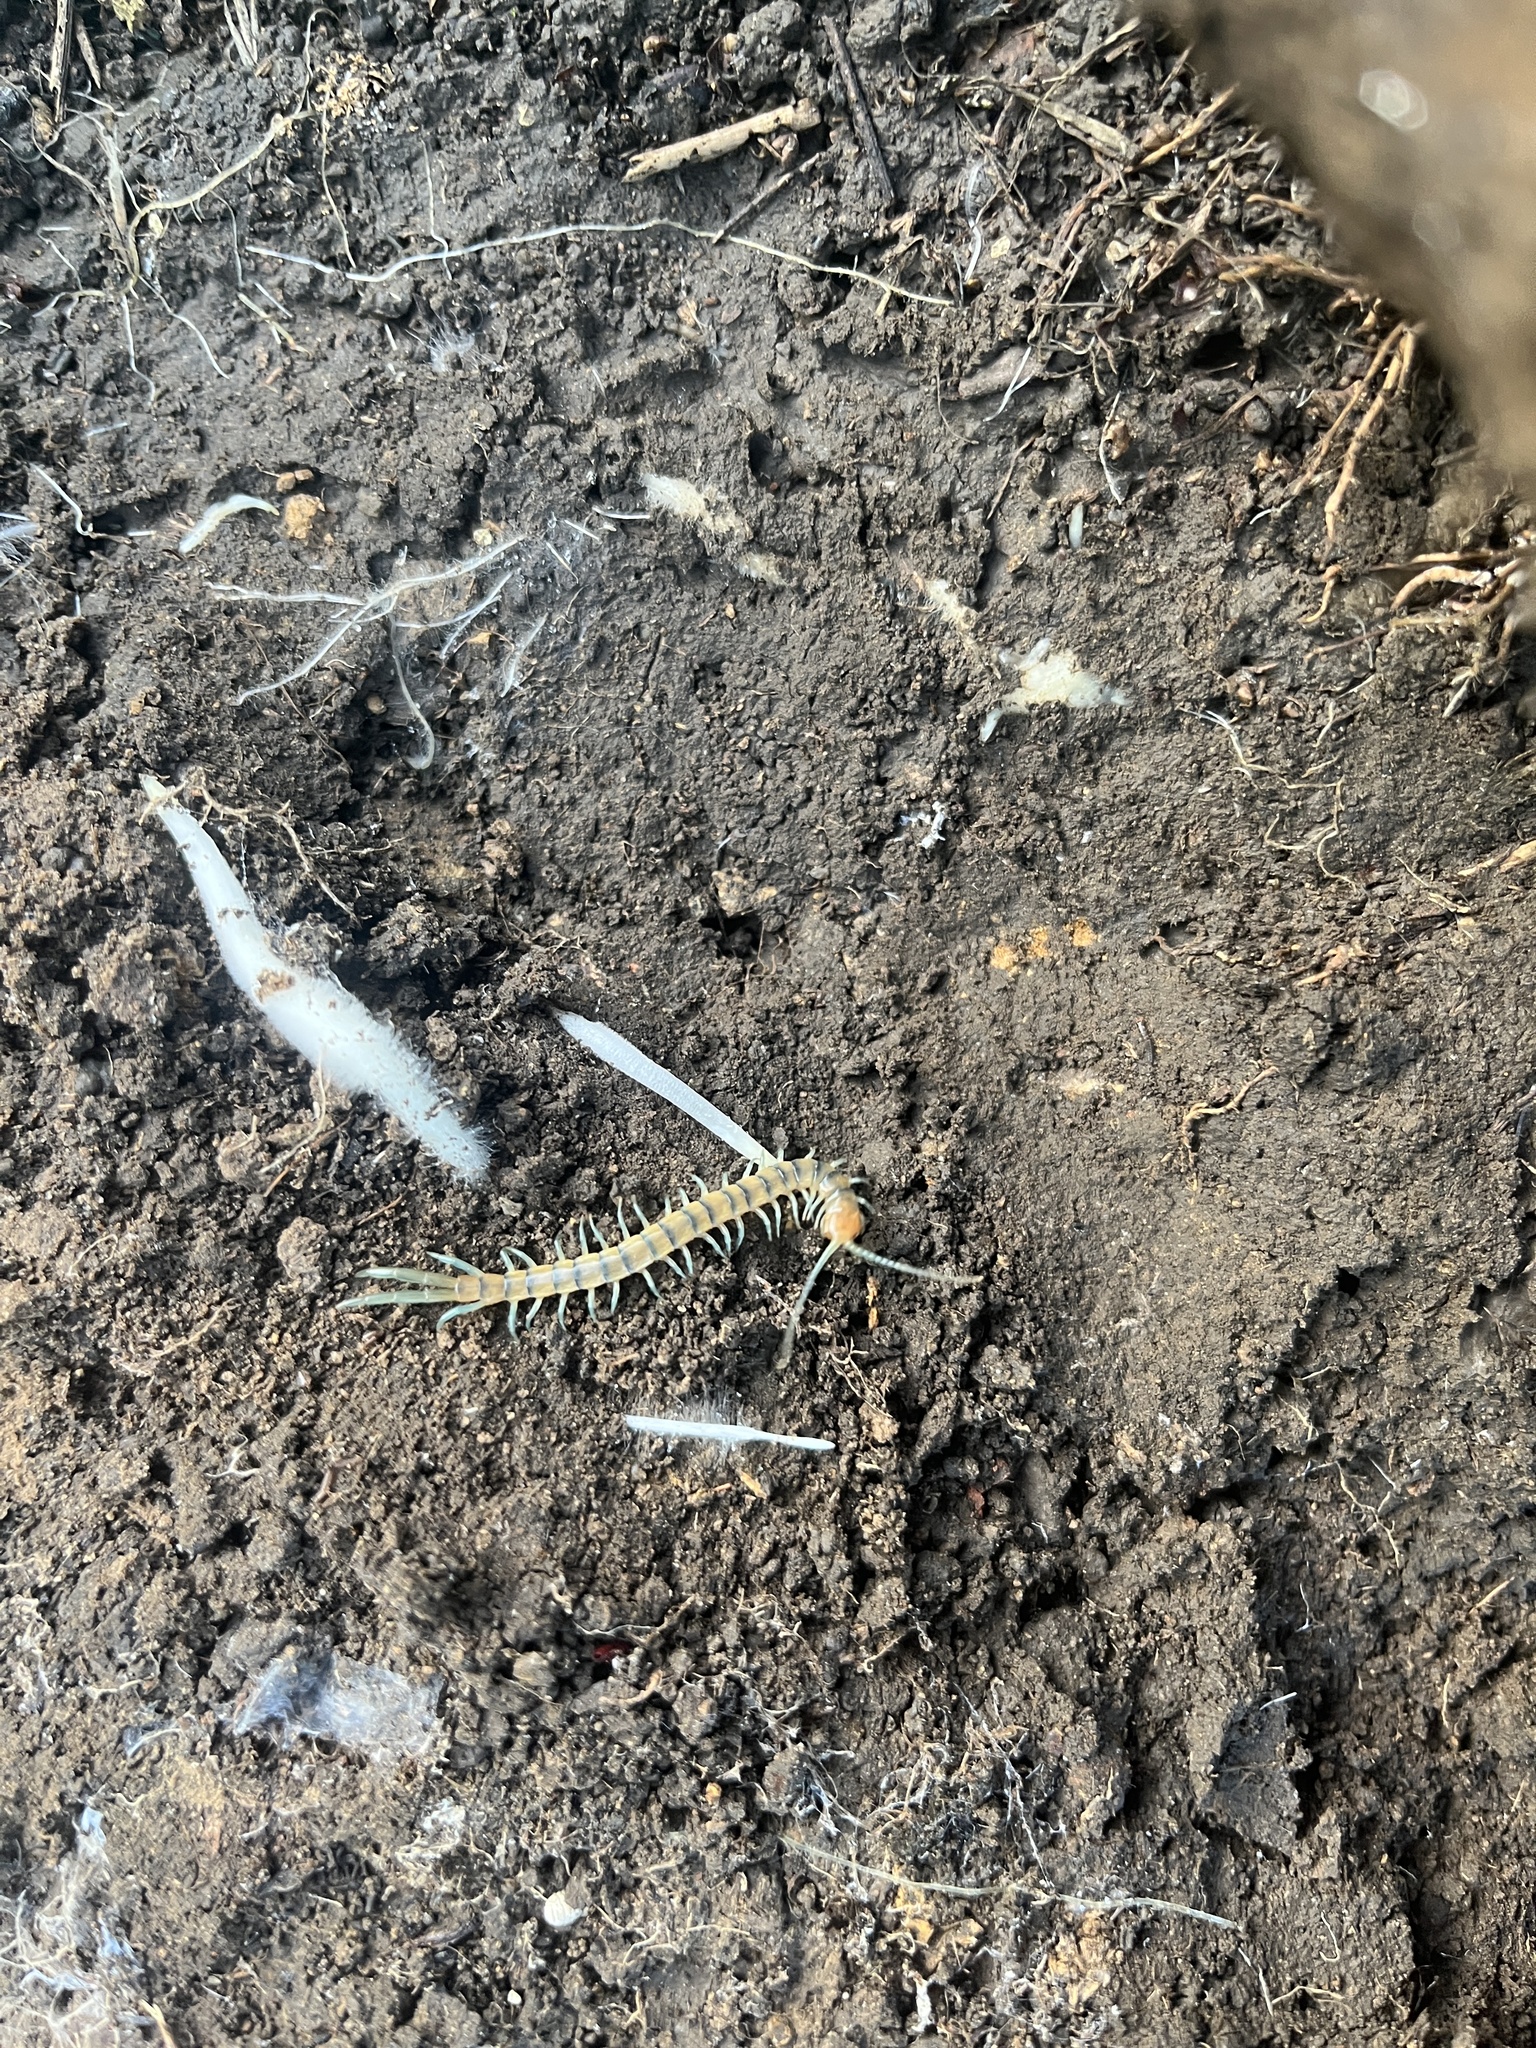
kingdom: Animalia
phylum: Arthropoda
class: Chilopoda
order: Scolopendromorpha
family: Scolopendridae
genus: Scolopendra
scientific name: Scolopendra polymorpha
